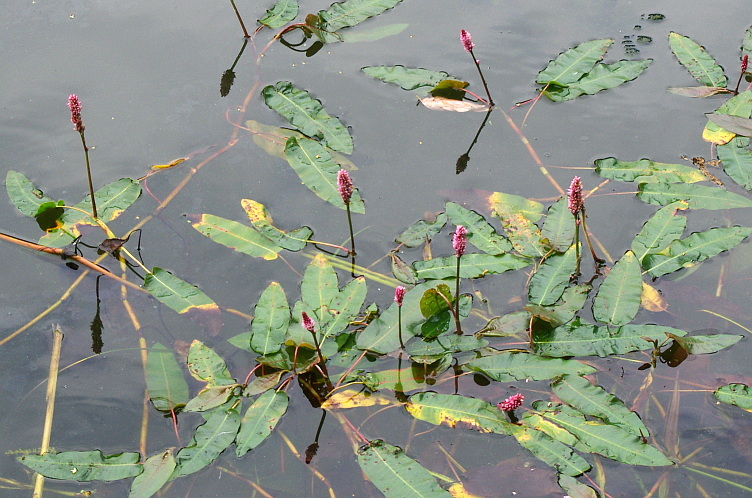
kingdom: Plantae
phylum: Tracheophyta
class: Magnoliopsida
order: Caryophyllales
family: Polygonaceae
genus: Persicaria
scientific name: Persicaria amphibia
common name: Amphibious bistort
